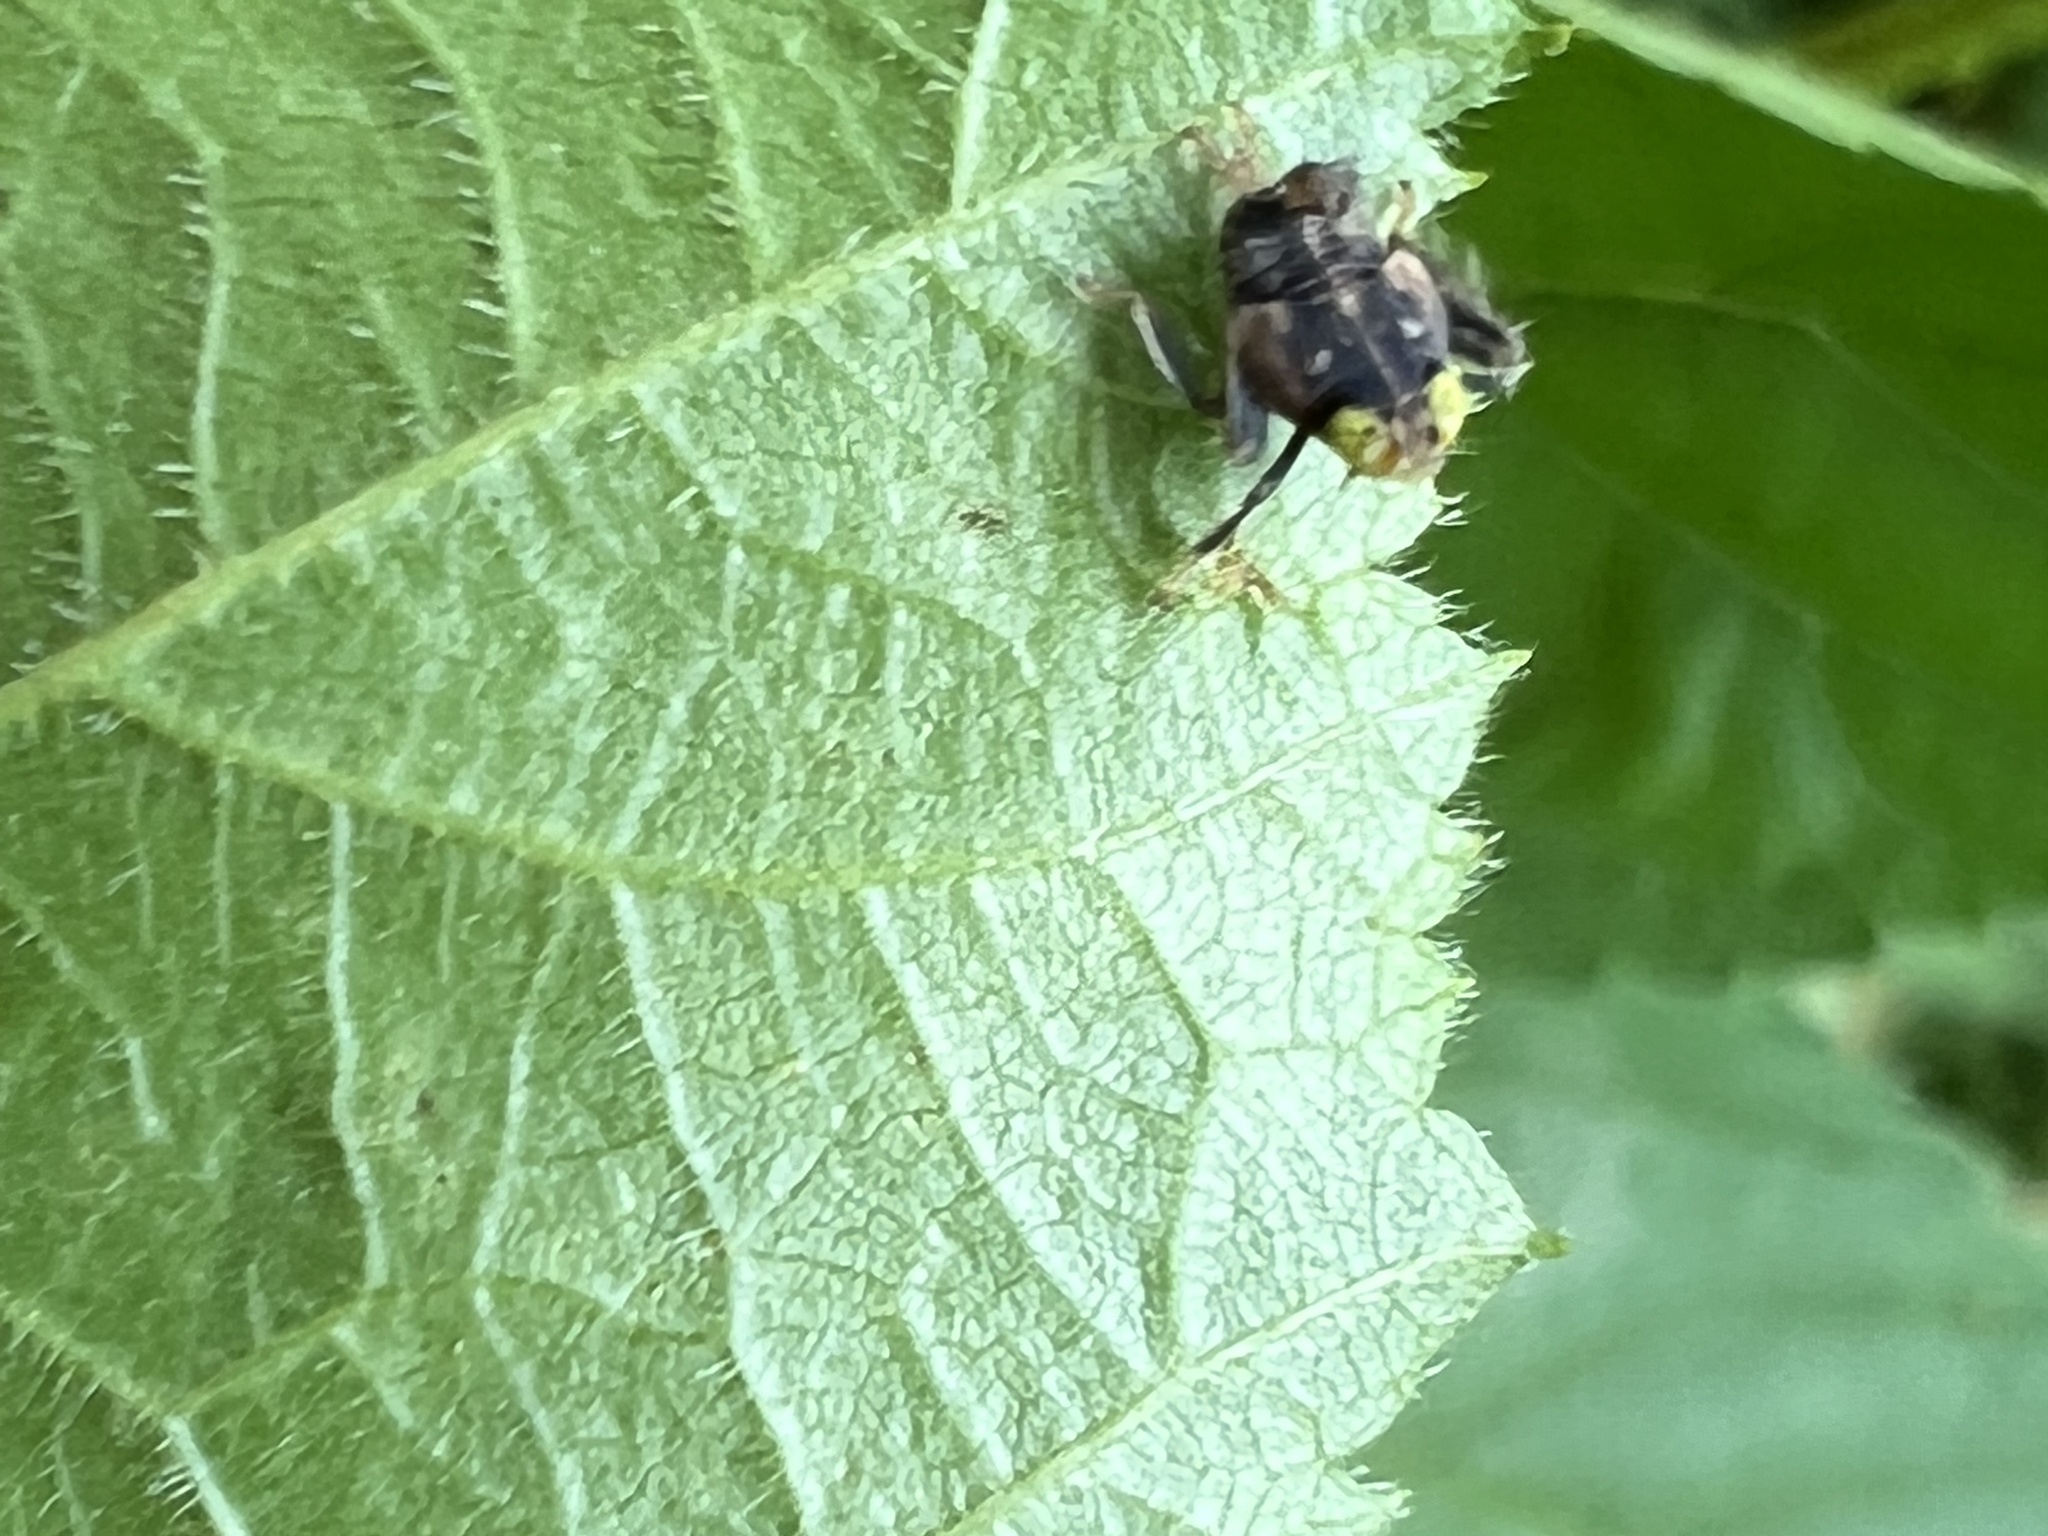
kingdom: Animalia
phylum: Arthropoda
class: Insecta
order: Hemiptera
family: Cicadellidae
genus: Jikradia
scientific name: Jikradia olitoria
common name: Coppery leafhopper
